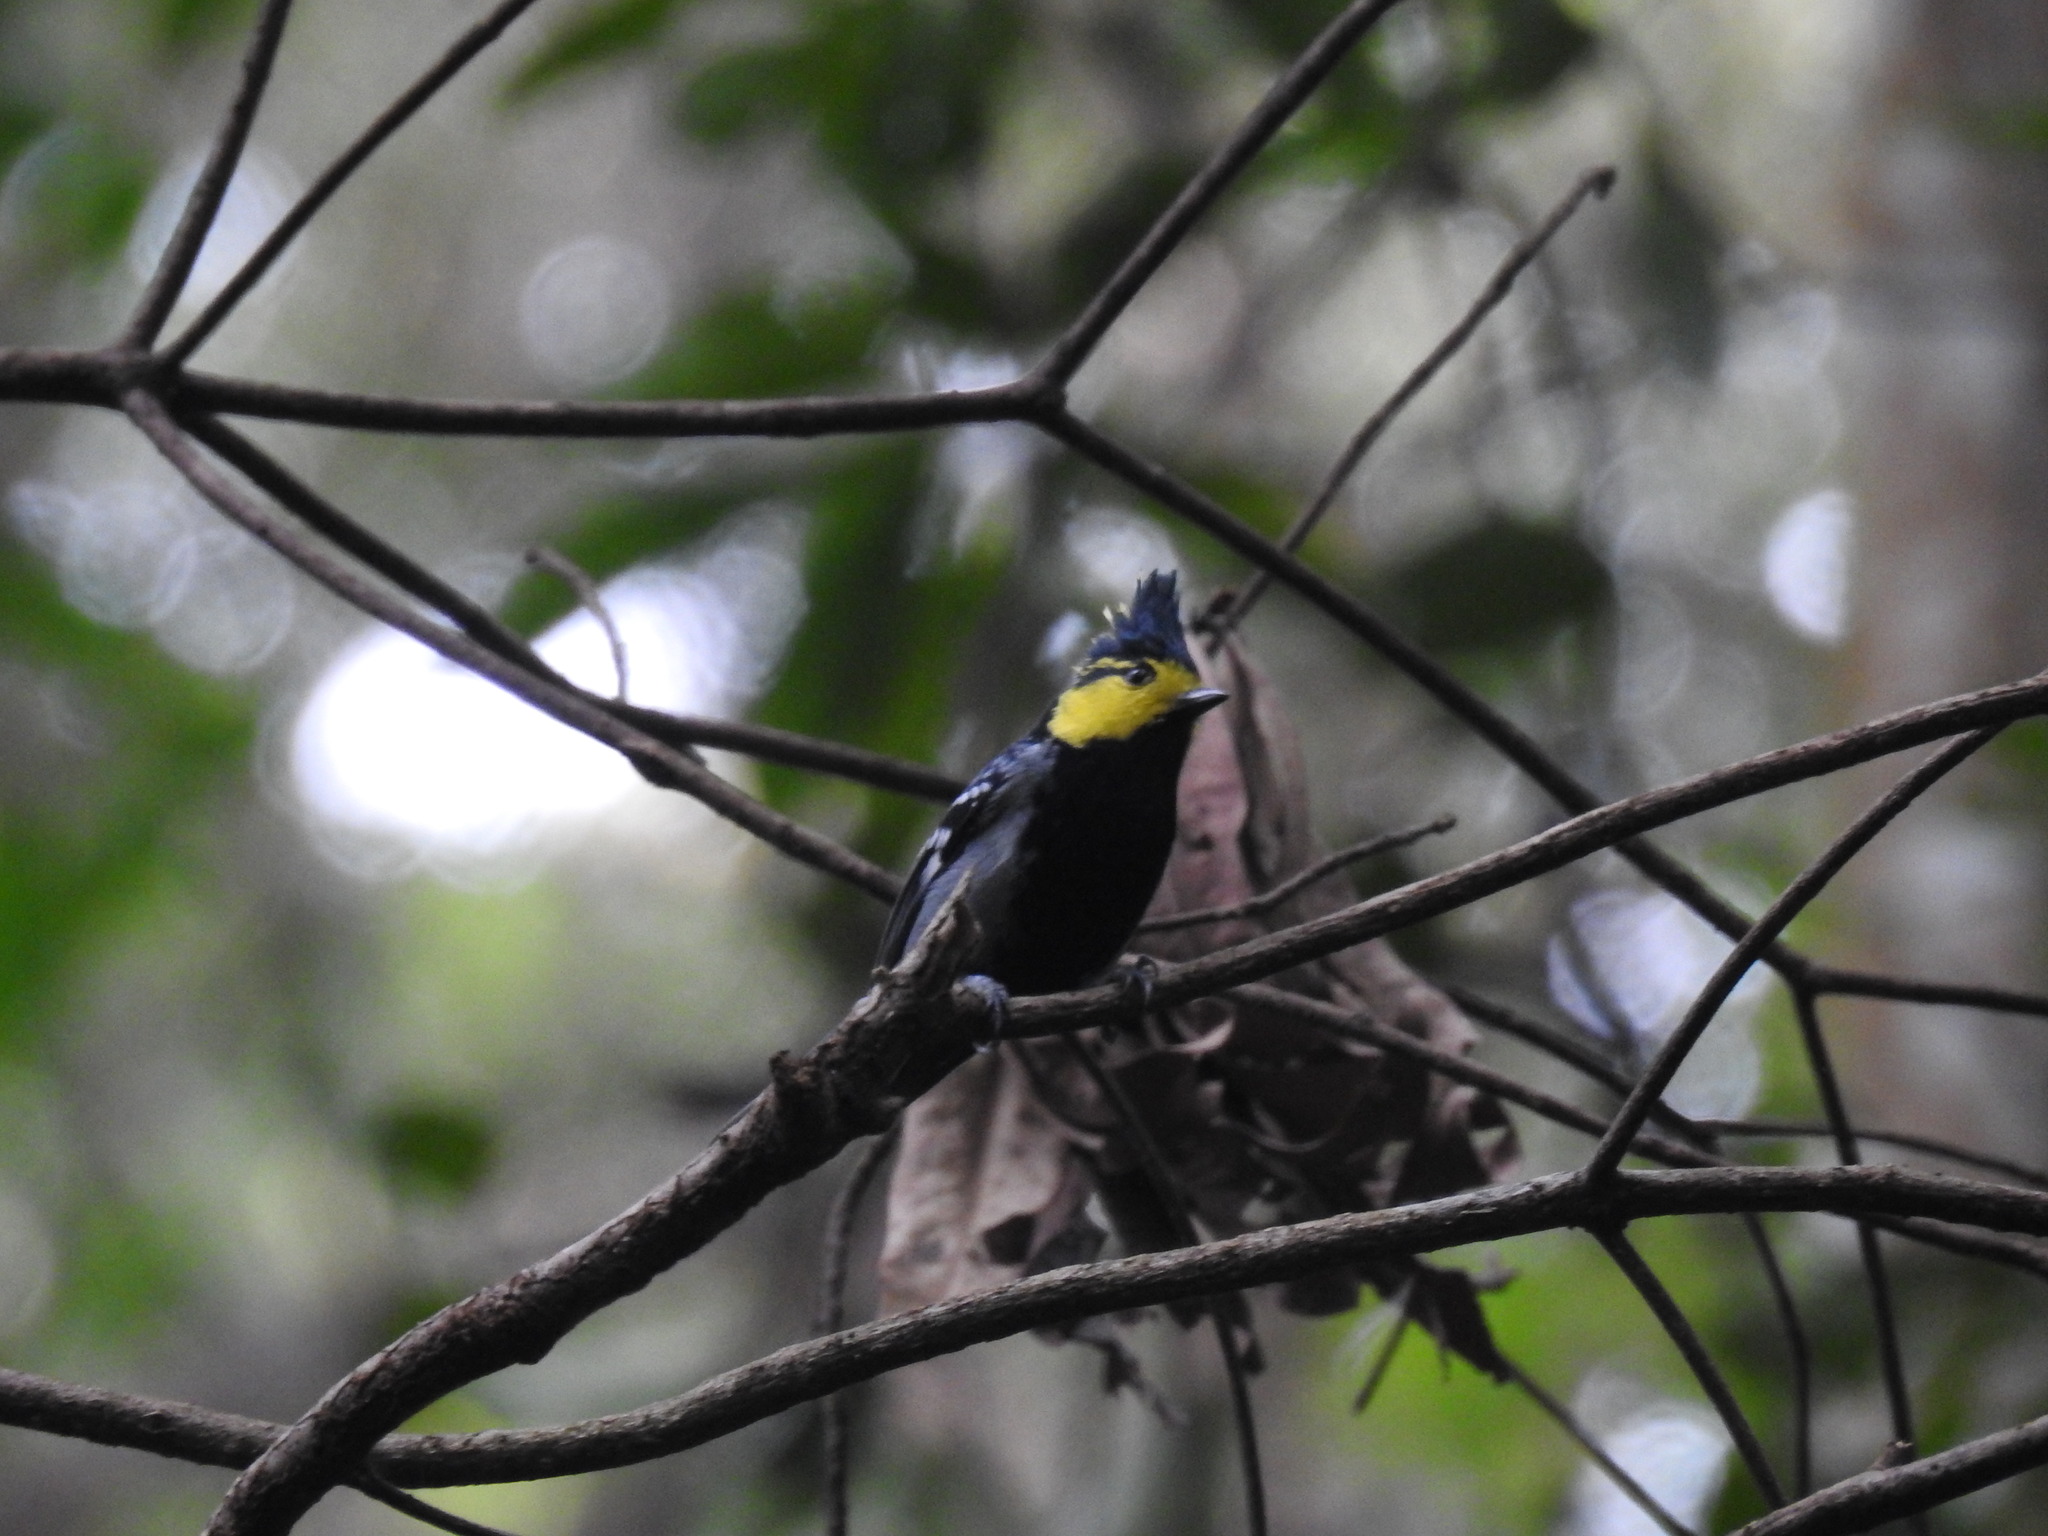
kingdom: Animalia
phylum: Chordata
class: Aves
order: Passeriformes
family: Paridae
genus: Parus
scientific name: Parus spilonotus
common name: Yellow-cheeked tit
